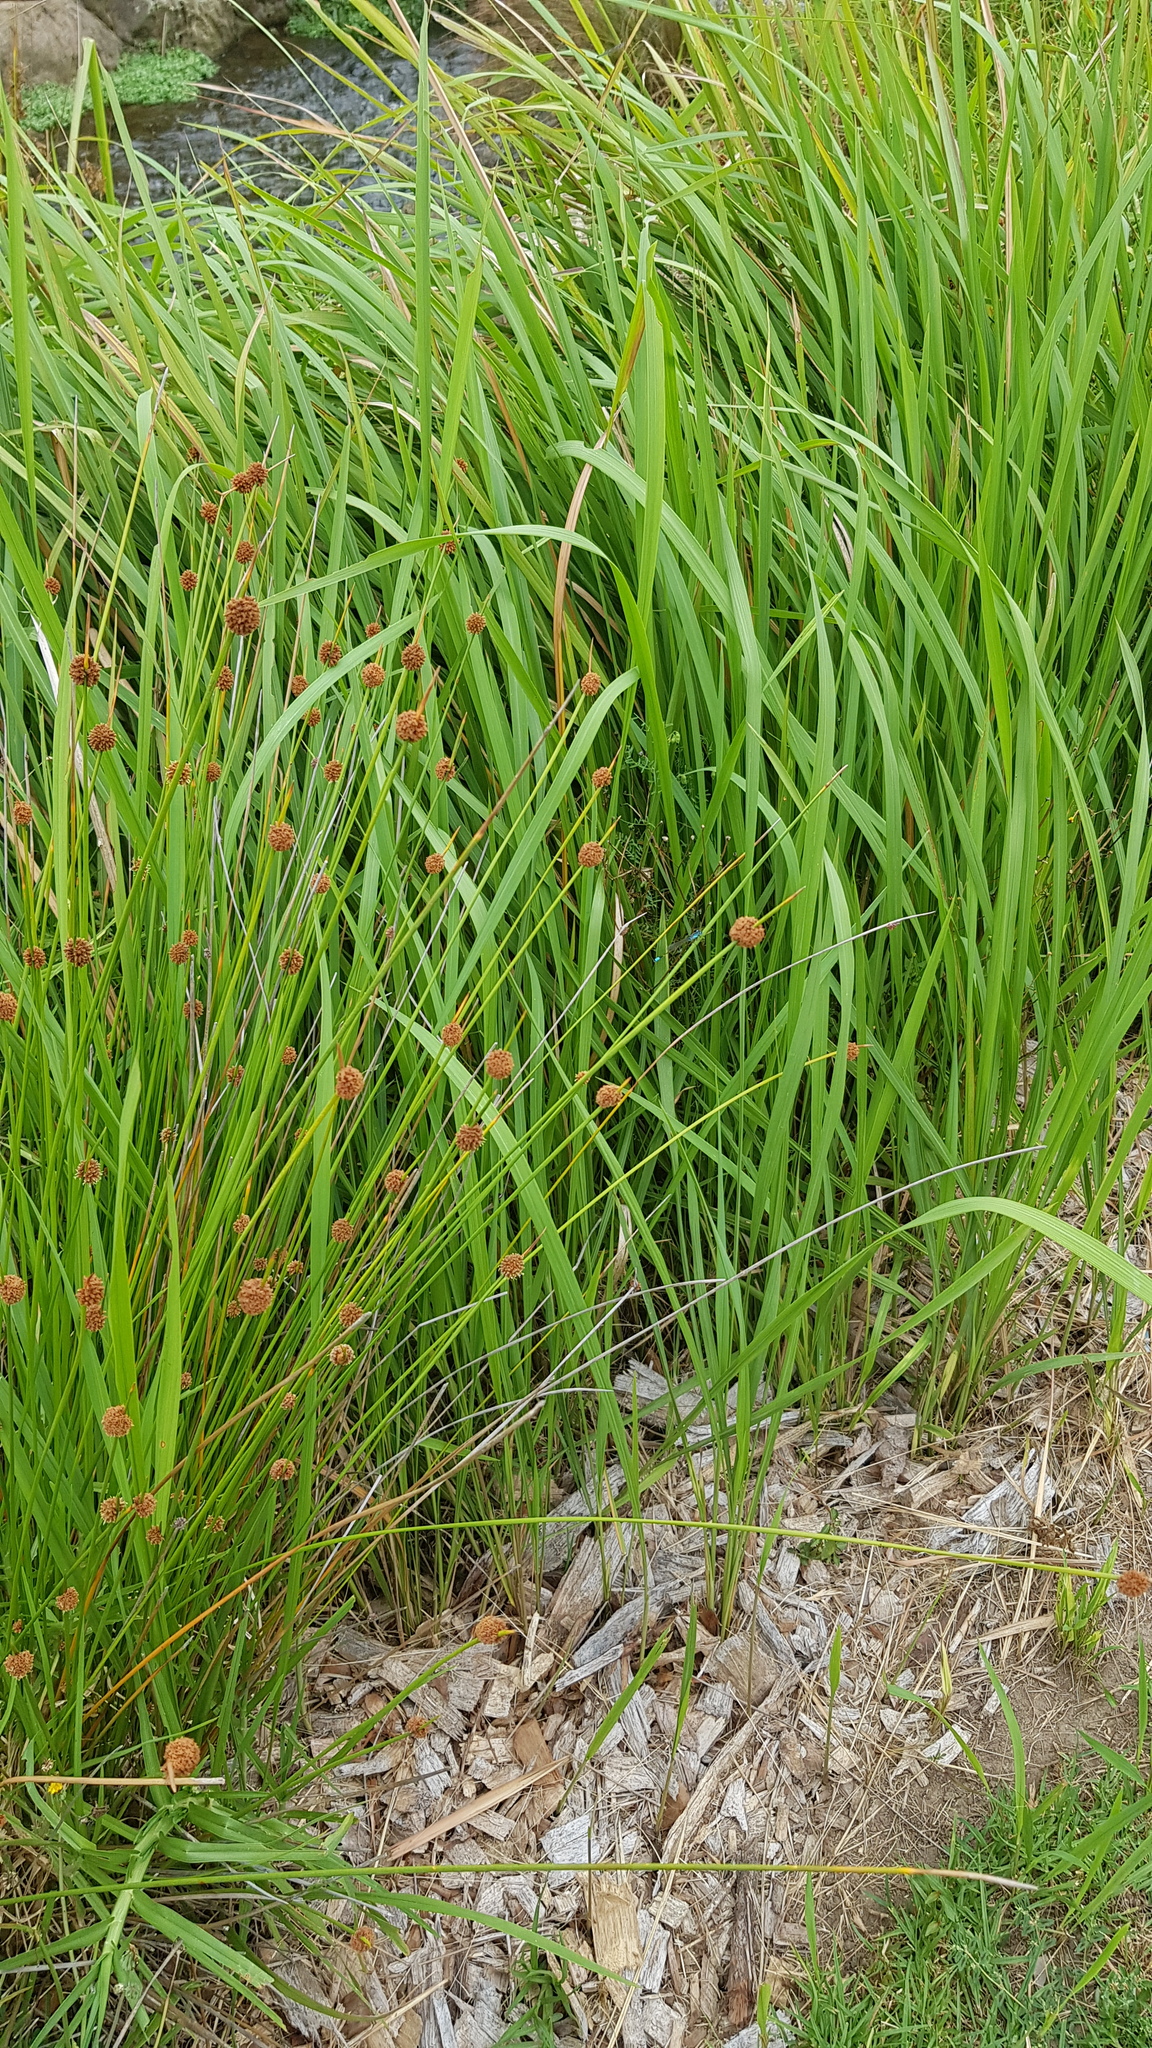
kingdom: Animalia
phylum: Arthropoda
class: Insecta
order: Odonata
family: Coenagrionidae
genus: Ischnura
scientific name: Ischnura heterosticta
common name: Common bluetail
